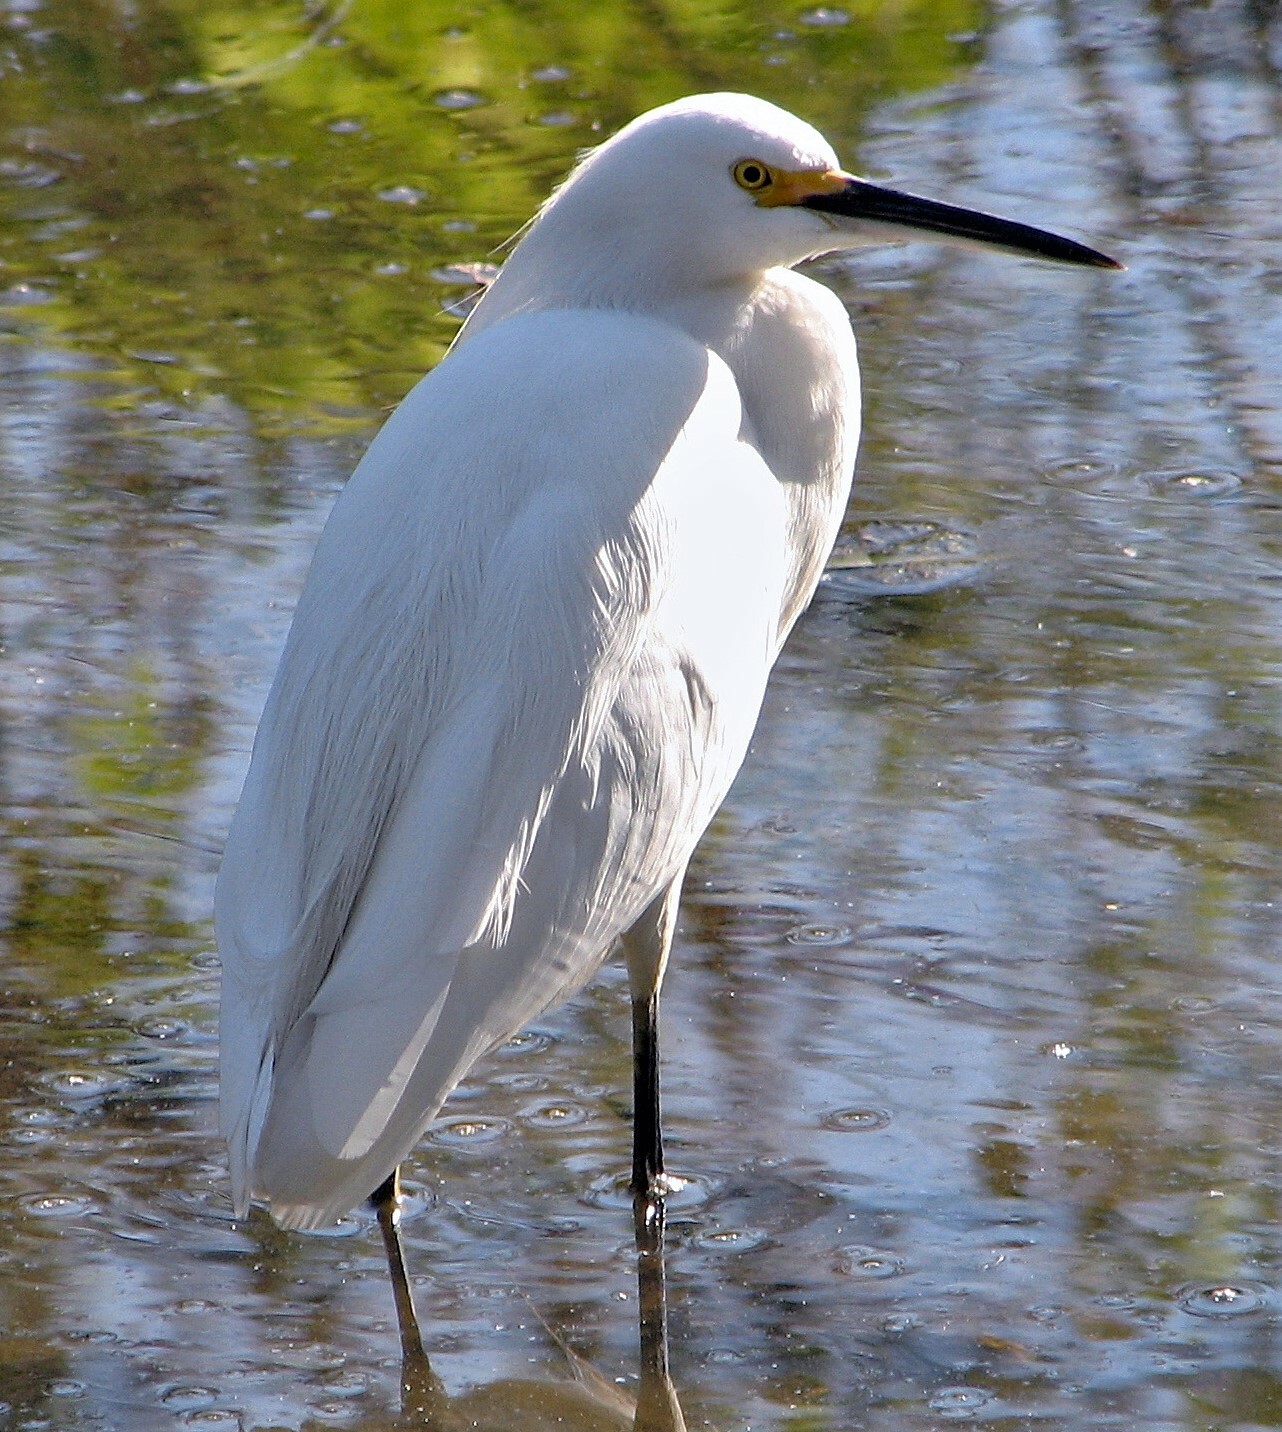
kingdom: Animalia
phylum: Chordata
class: Aves
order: Pelecaniformes
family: Ardeidae
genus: Egretta
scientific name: Egretta thula
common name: Snowy egret
